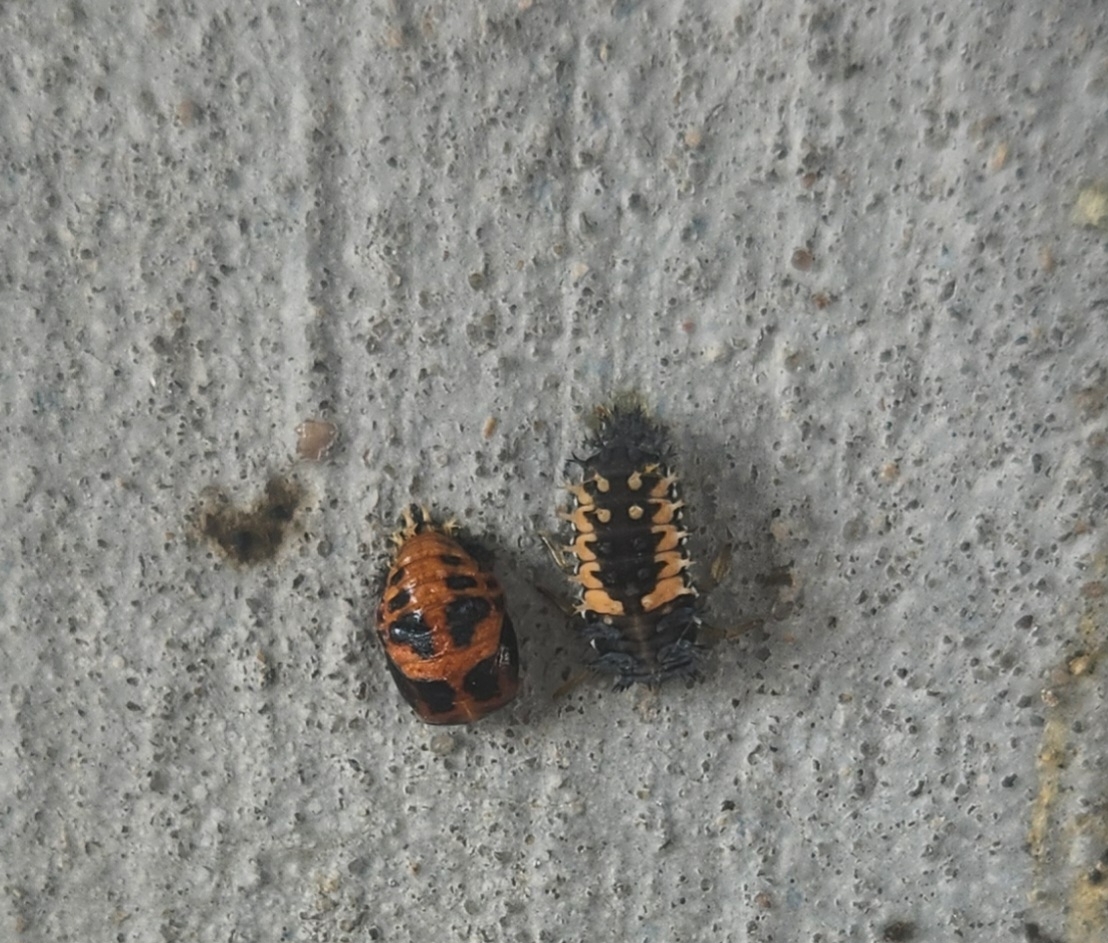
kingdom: Animalia
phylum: Arthropoda
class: Insecta
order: Coleoptera
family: Coccinellidae
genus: Harmonia
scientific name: Harmonia axyridis
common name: Harlequin ladybird
